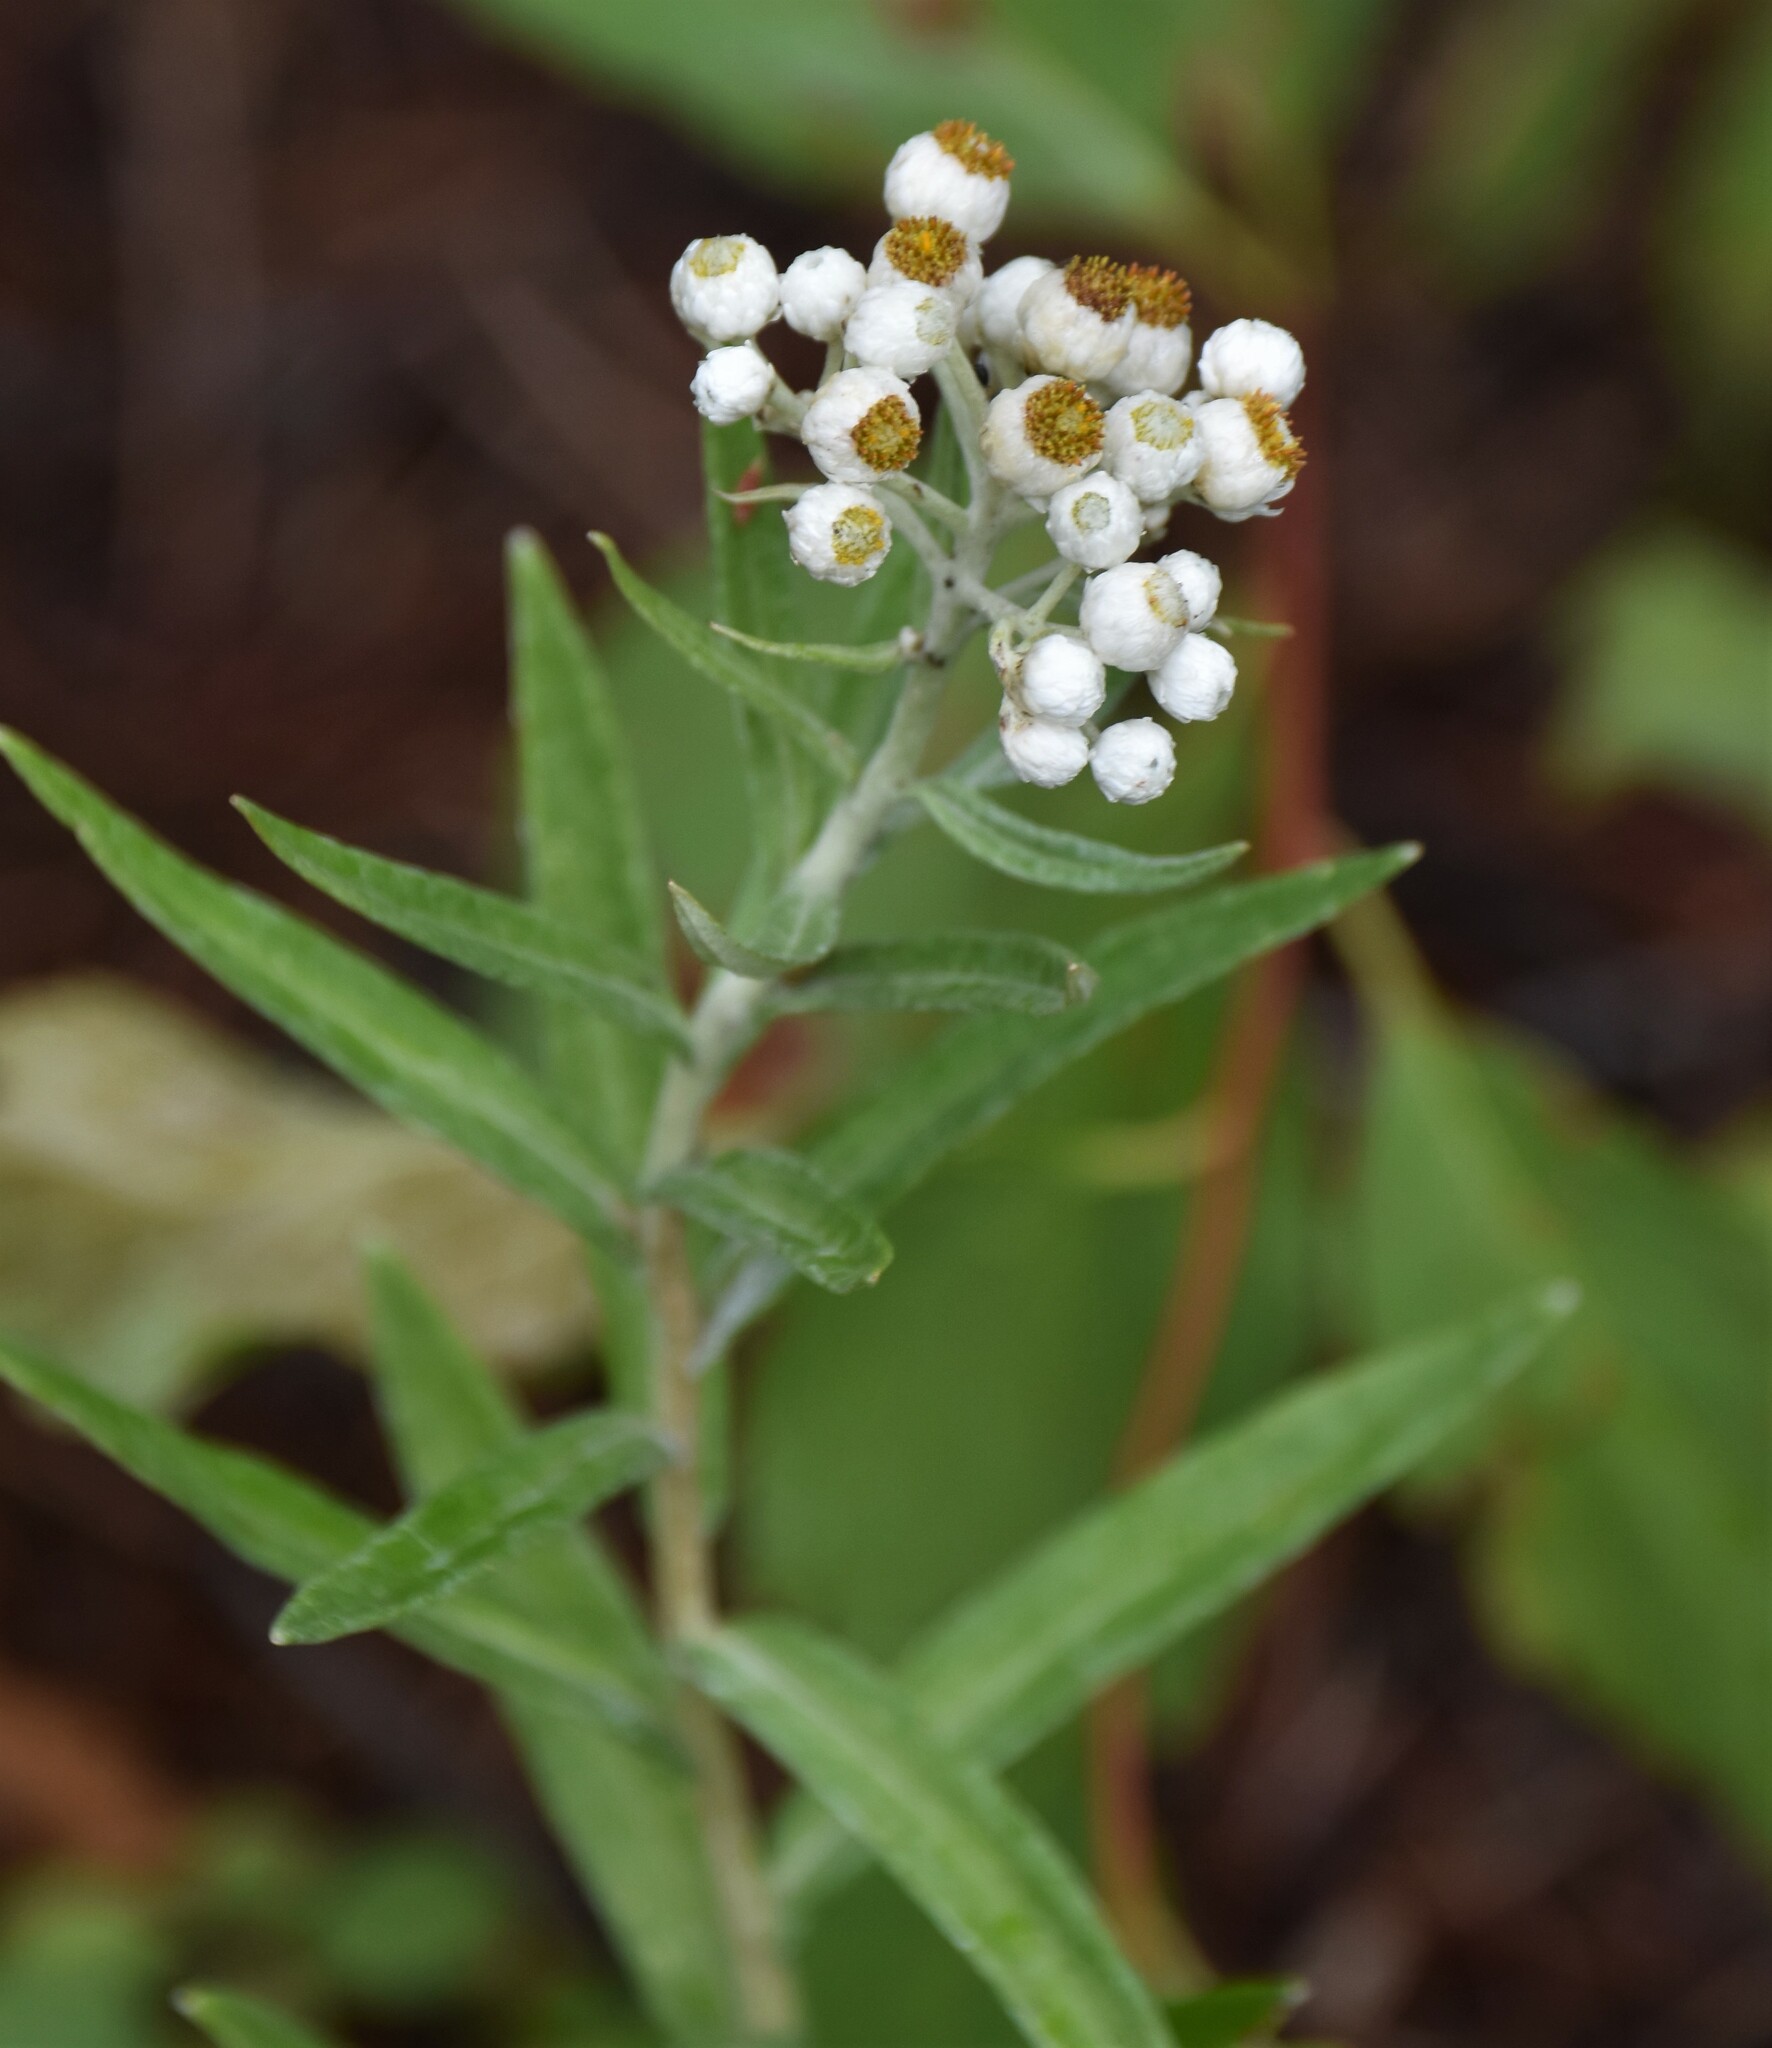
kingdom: Plantae
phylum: Tracheophyta
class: Magnoliopsida
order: Asterales
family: Asteraceae
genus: Anaphalis
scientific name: Anaphalis margaritacea
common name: Pearly everlasting
